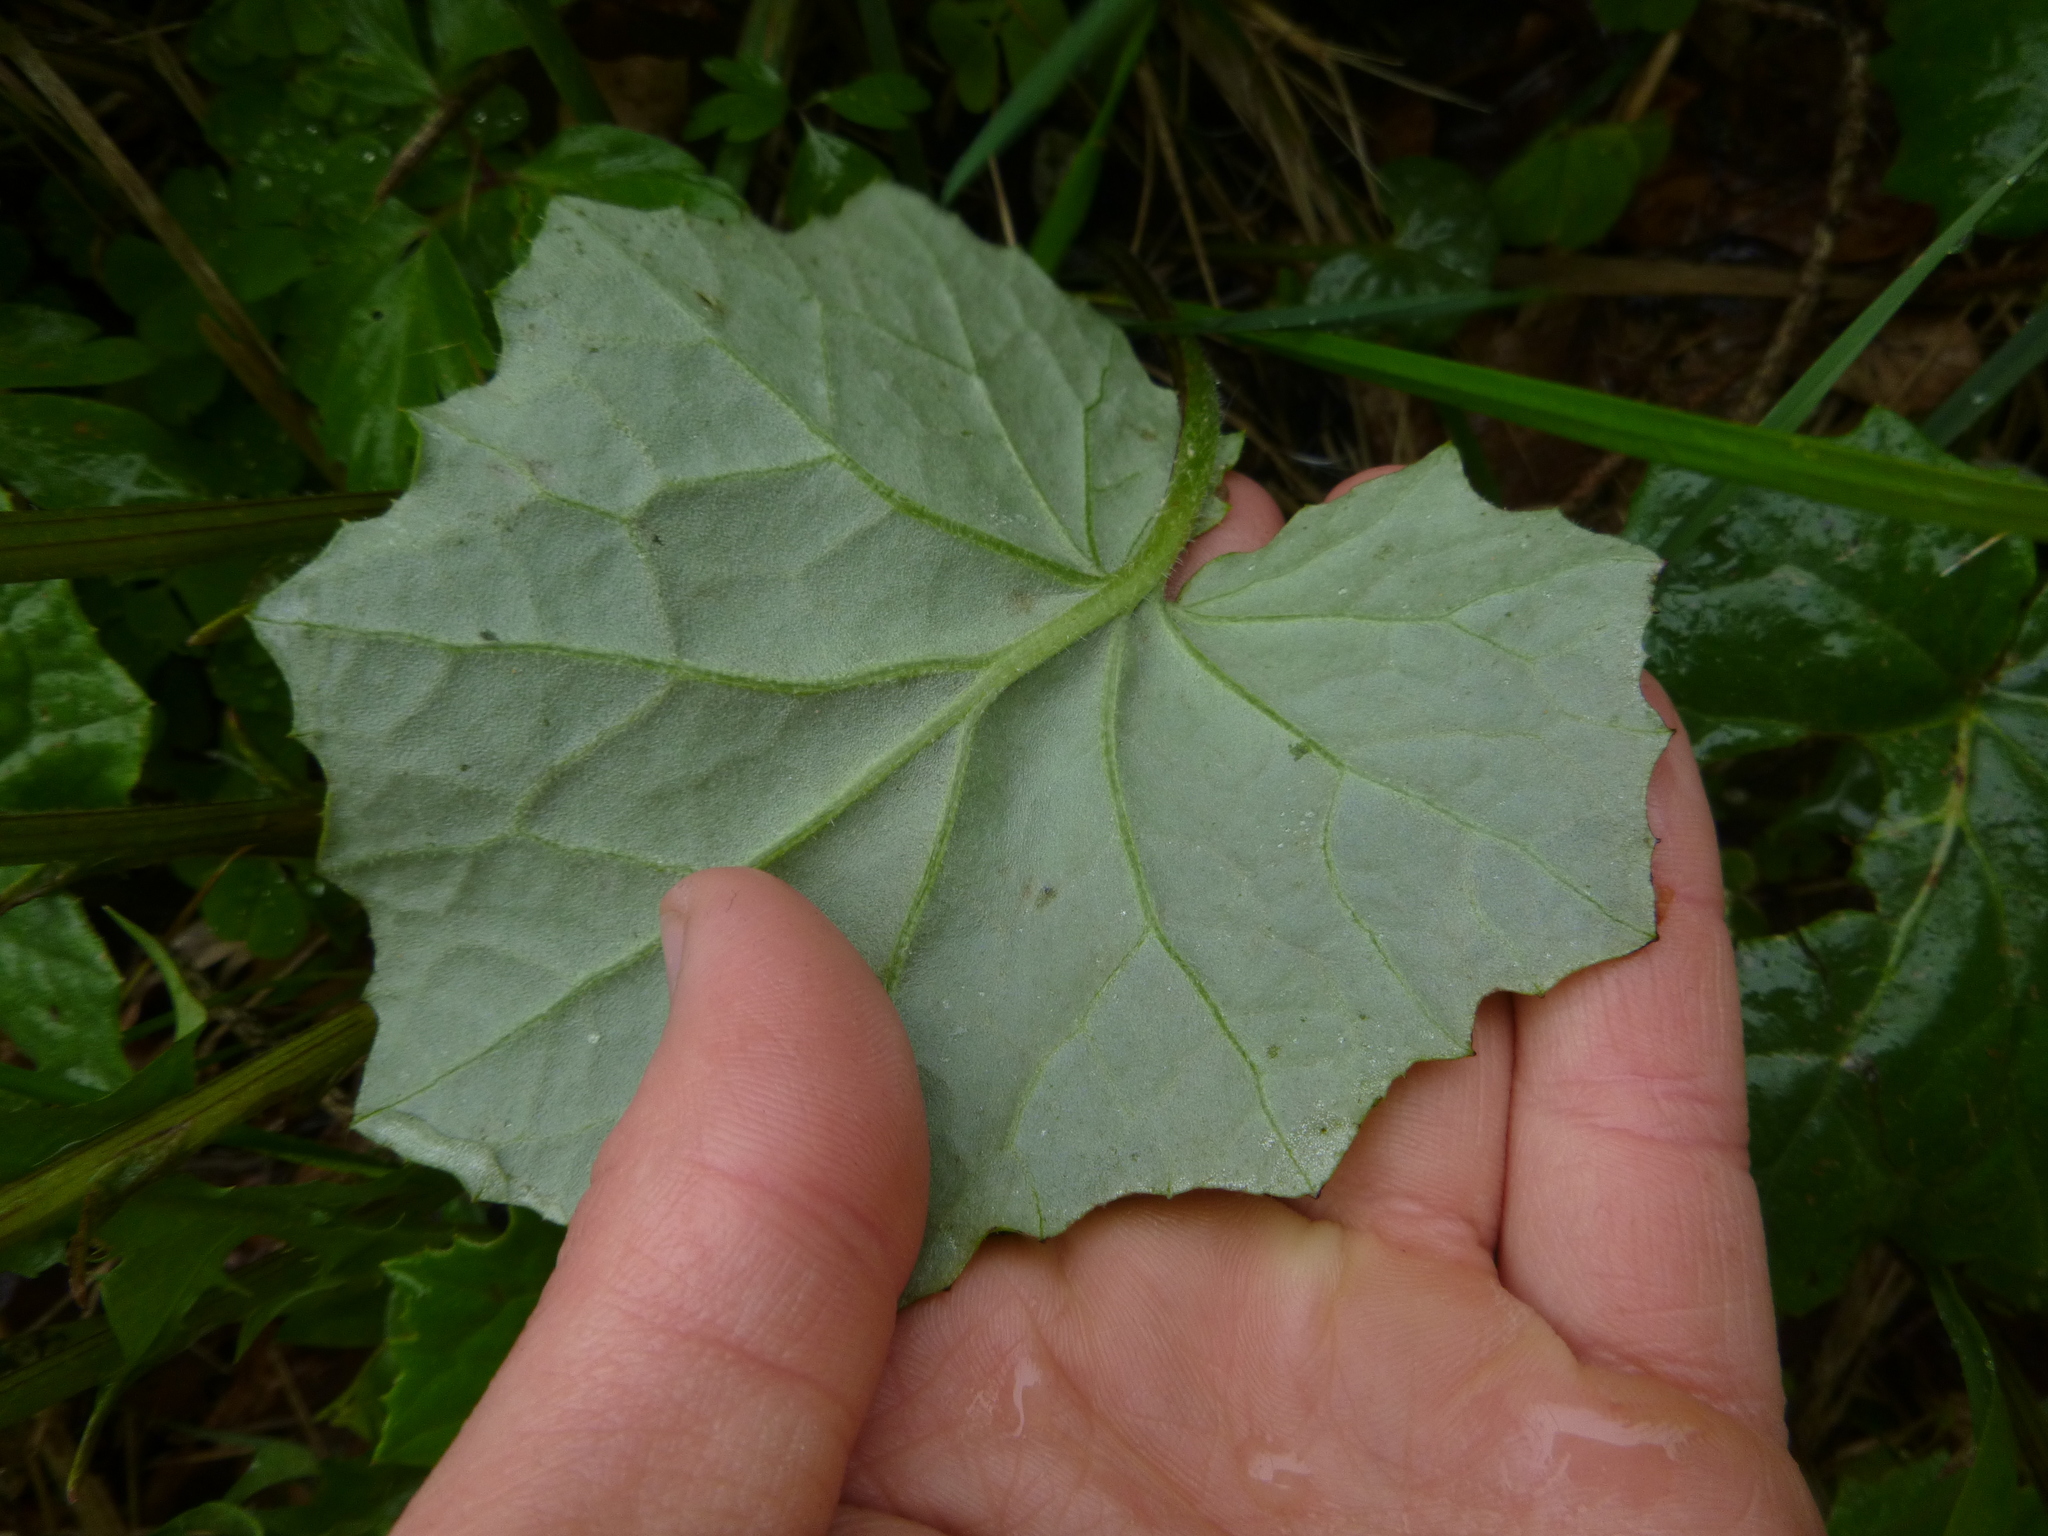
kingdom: Plantae
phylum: Tracheophyta
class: Magnoliopsida
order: Asterales
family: Asteraceae
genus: Tussilago
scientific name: Tussilago farfara
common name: Coltsfoot
